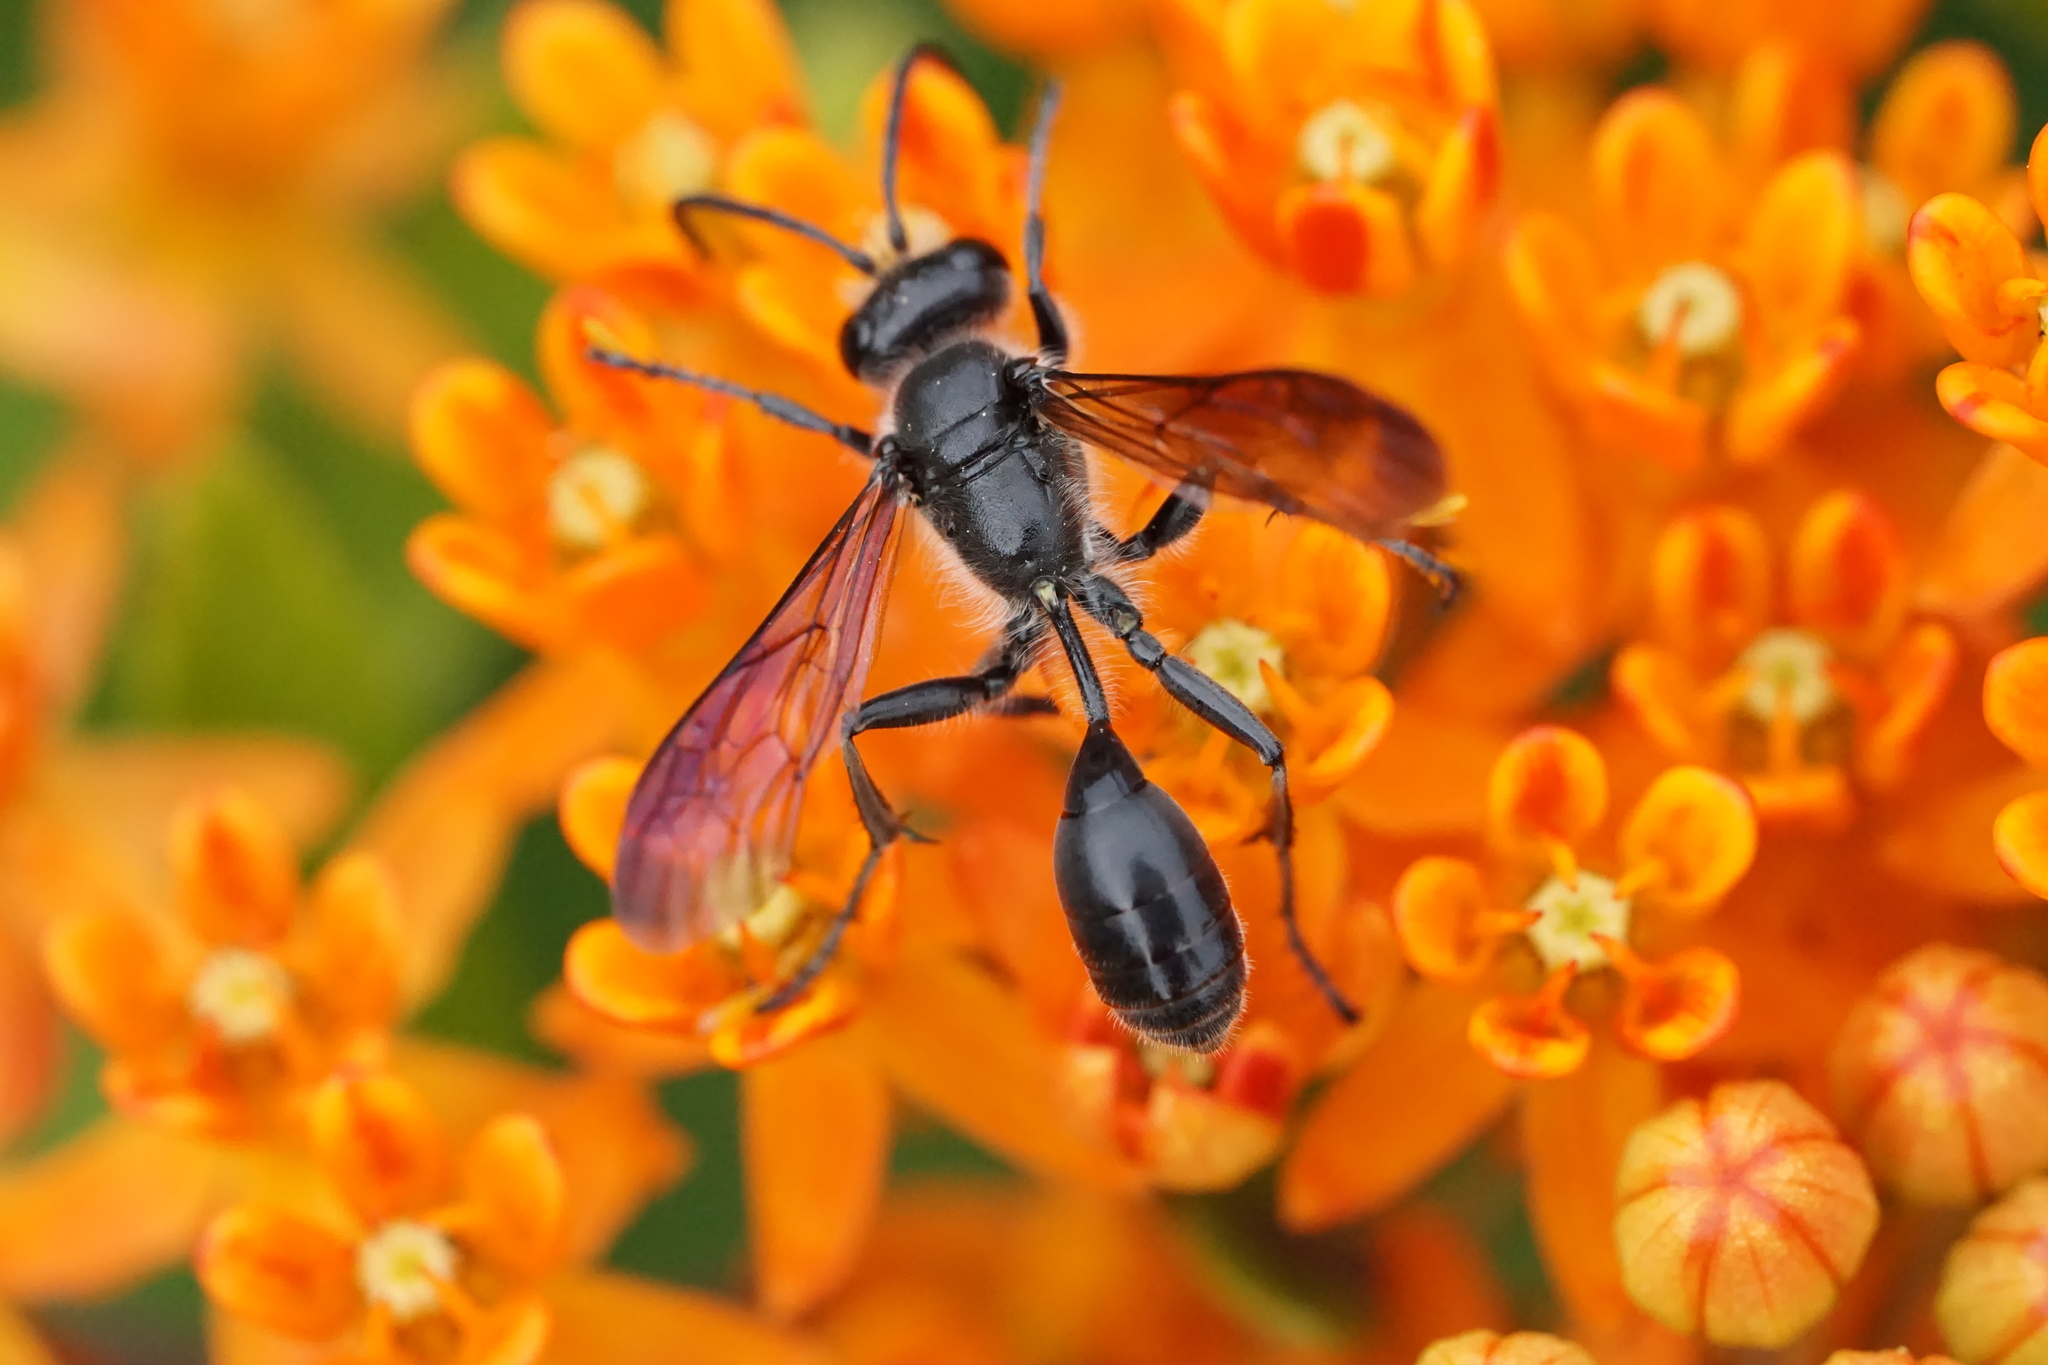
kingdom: Animalia
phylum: Arthropoda
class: Insecta
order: Hymenoptera
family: Sphecidae
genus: Isodontia
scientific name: Isodontia mexicana
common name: Mud dauber
